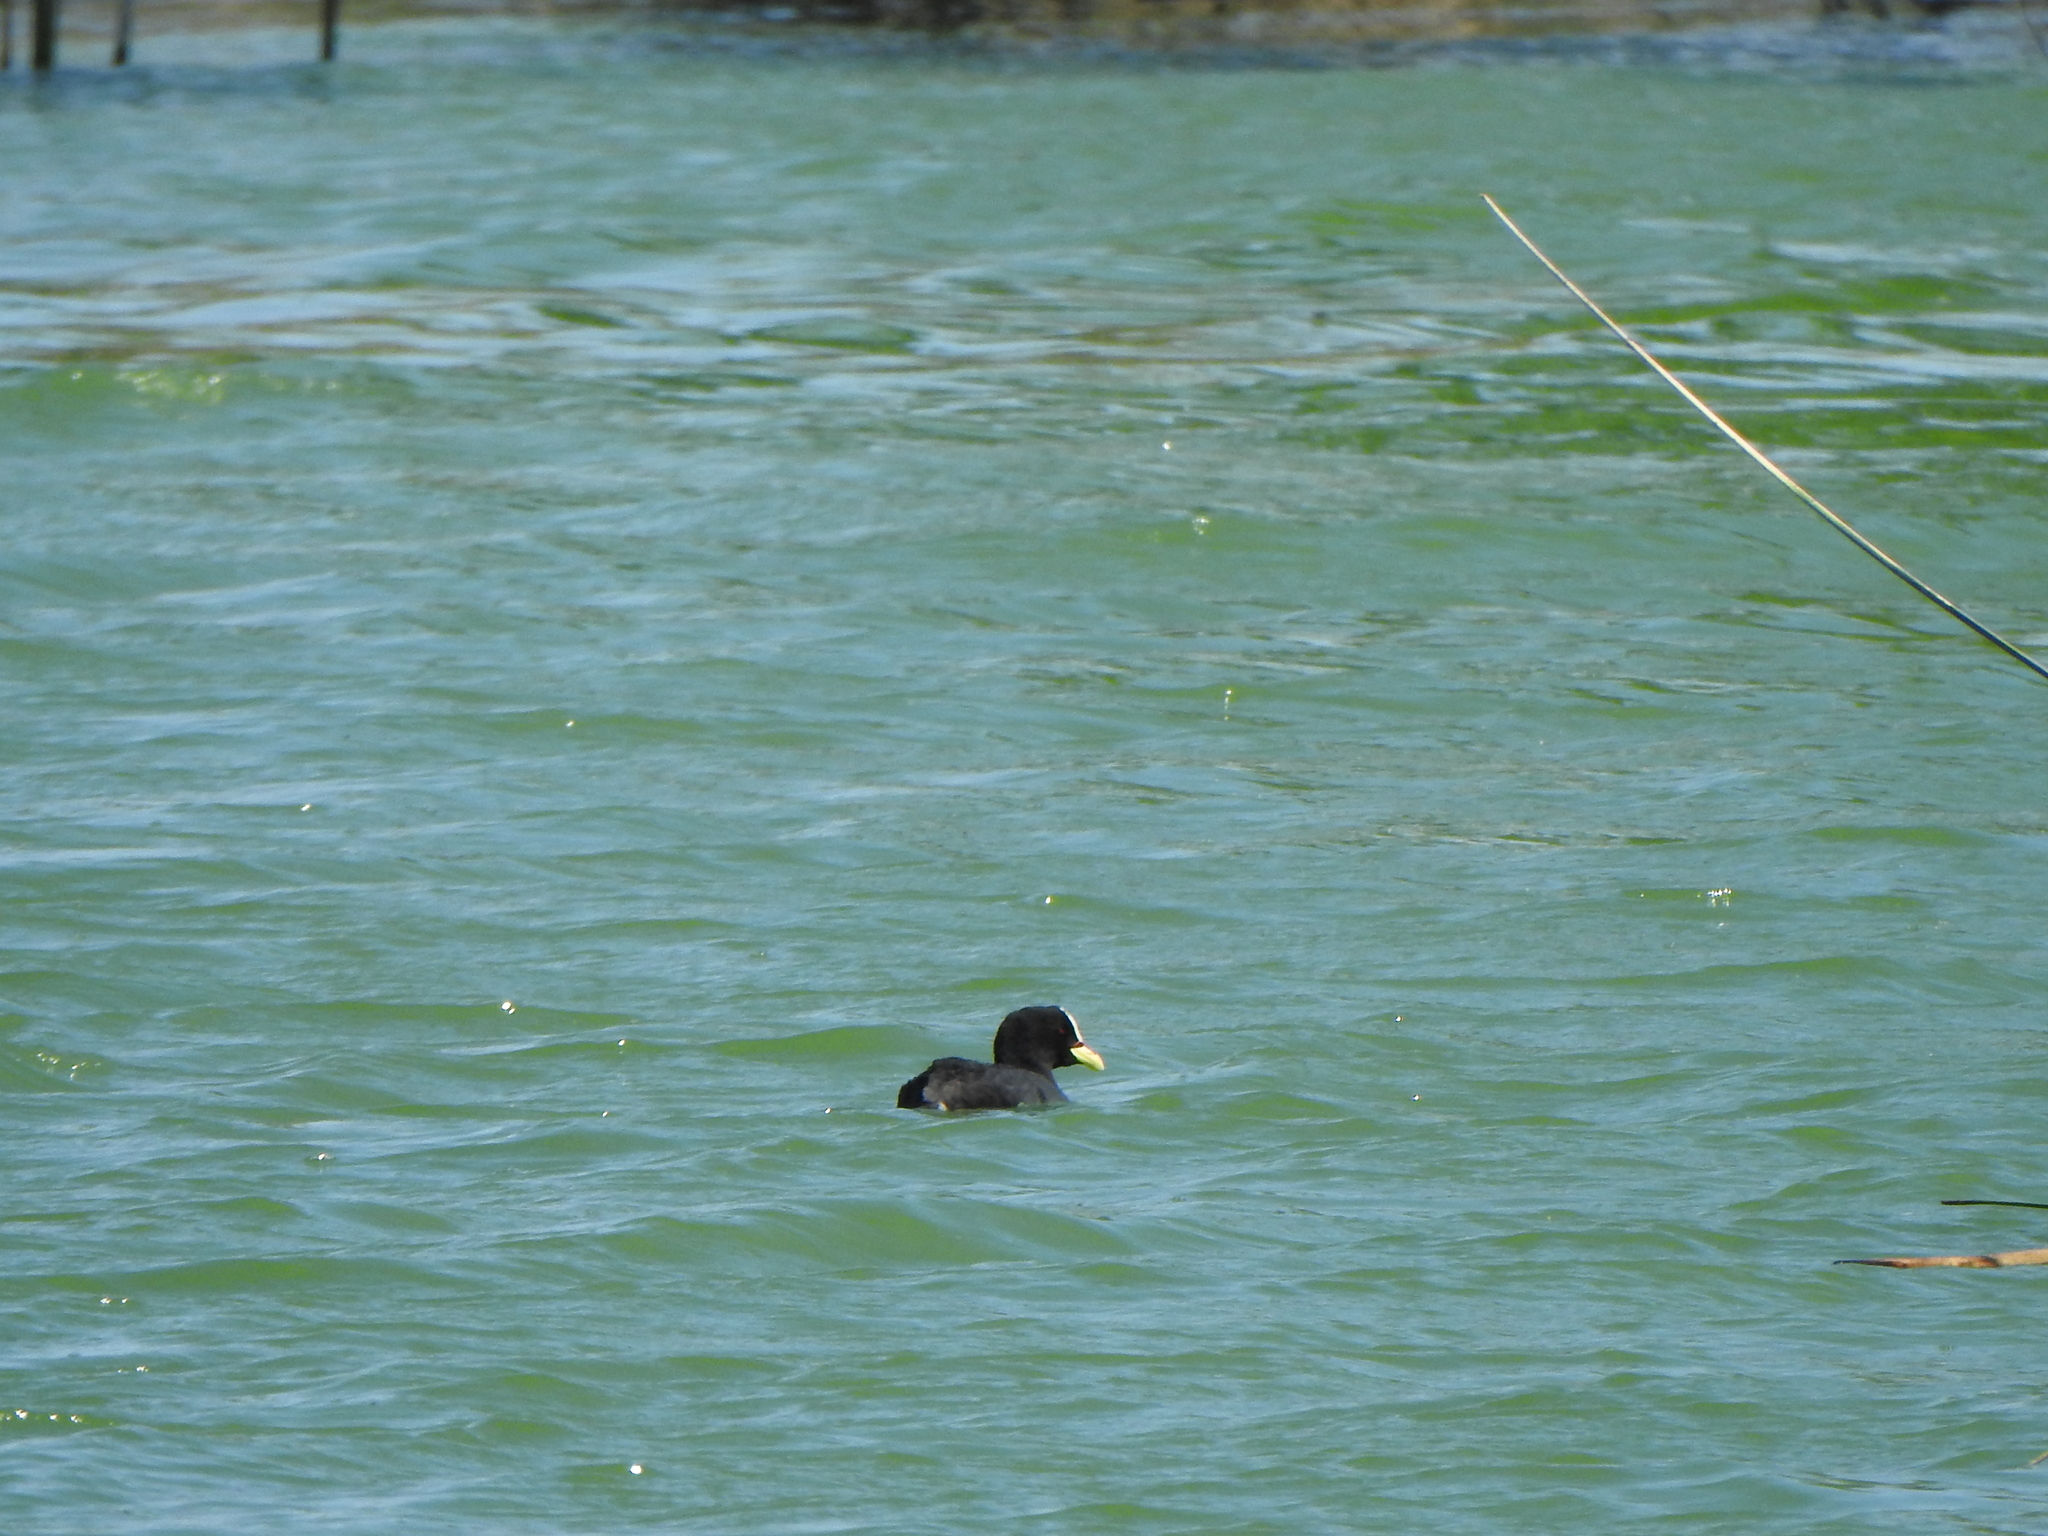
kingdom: Animalia
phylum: Chordata
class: Aves
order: Gruiformes
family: Rallidae
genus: Fulica
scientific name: Fulica armillata
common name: Red-gartered coot
